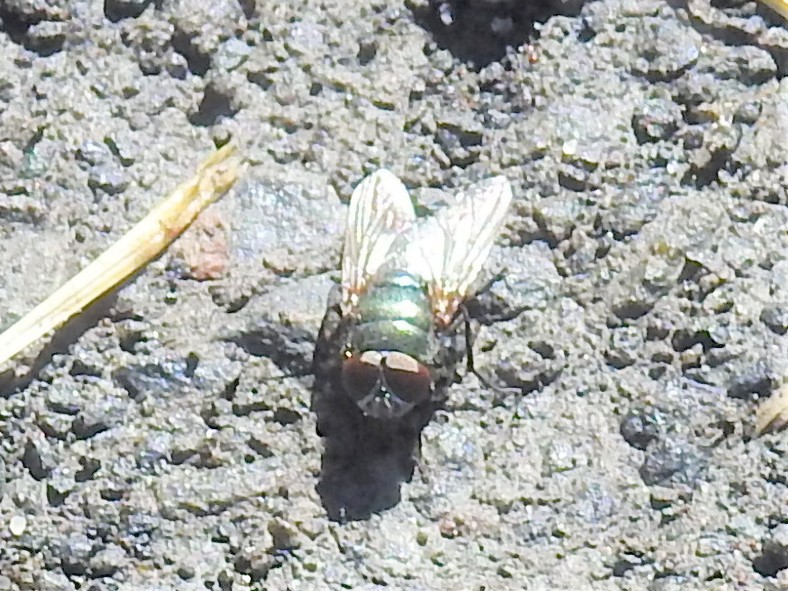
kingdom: Animalia
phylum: Arthropoda
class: Insecta
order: Diptera
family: Calliphoridae
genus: Phormia
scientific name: Phormia regina
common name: Black blow fly
